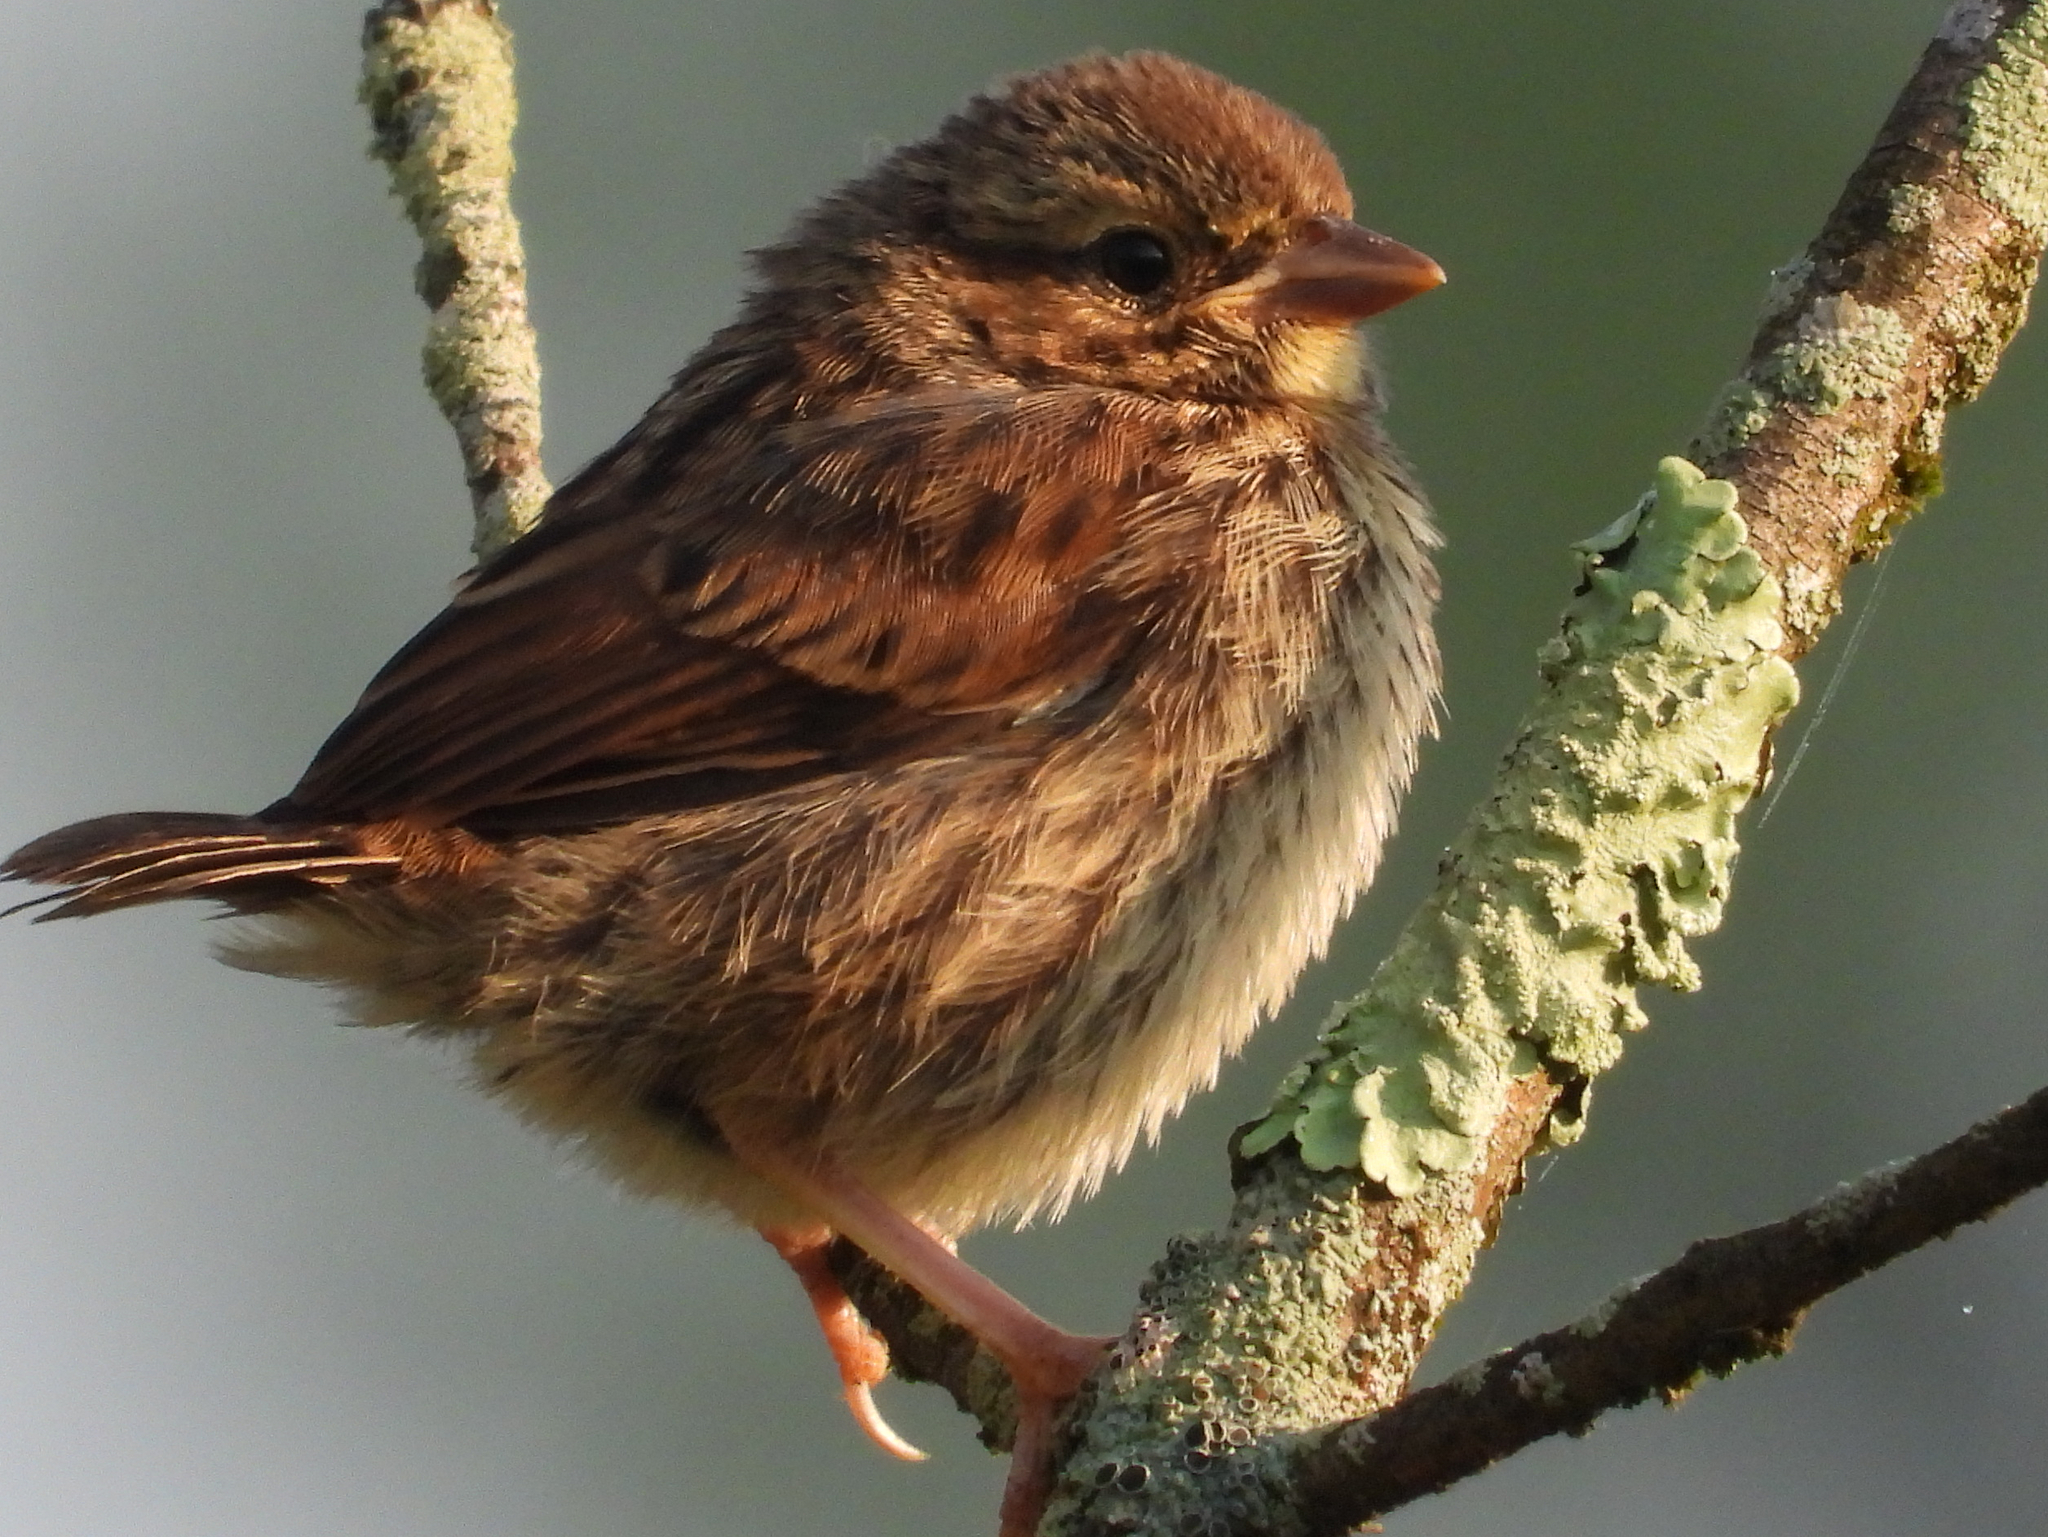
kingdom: Animalia
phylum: Chordata
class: Aves
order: Passeriformes
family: Passerellidae
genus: Melospiza
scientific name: Melospiza melodia
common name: Song sparrow
